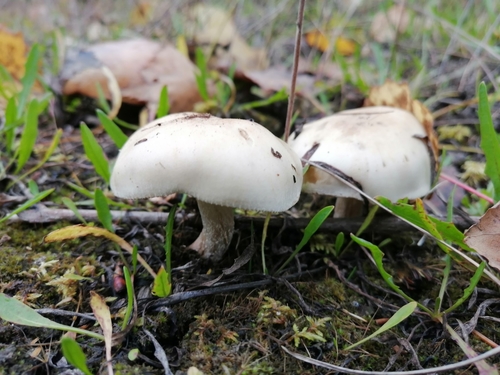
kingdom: Fungi
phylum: Basidiomycota
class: Agaricomycetes
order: Agaricales
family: Hymenogastraceae
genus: Hebeloma
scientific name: Hebeloma
